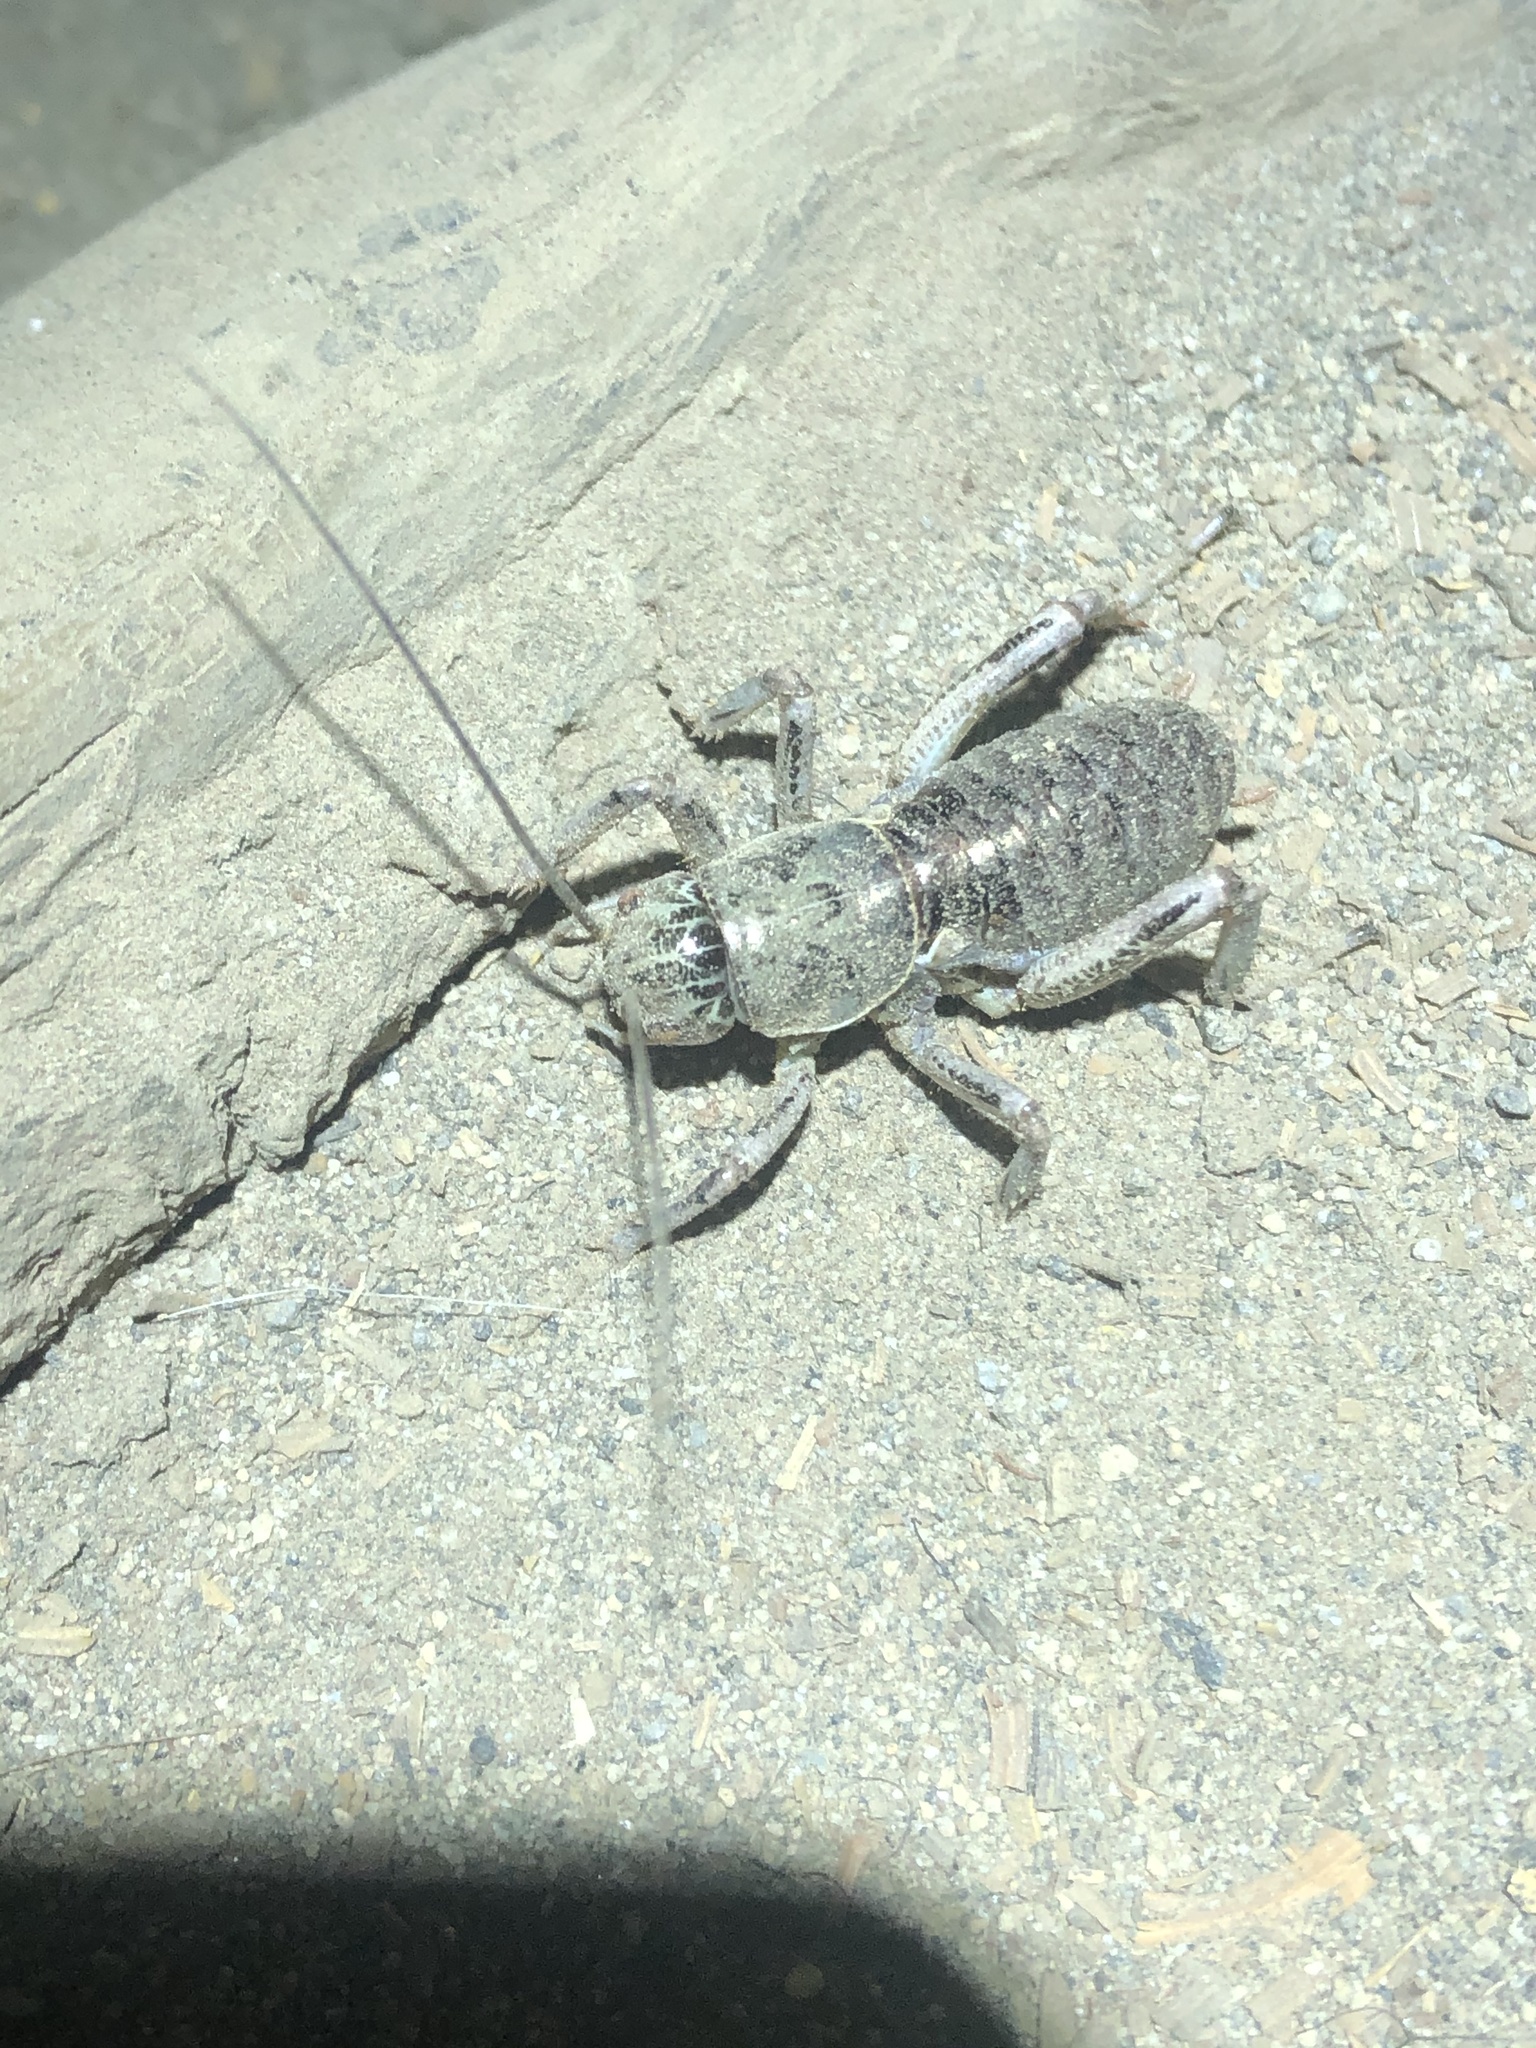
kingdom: Animalia
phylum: Arthropoda
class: Insecta
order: Orthoptera
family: Prophalangopsidae
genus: Cyphoderris
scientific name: Cyphoderris monstrosa
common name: Great grig
